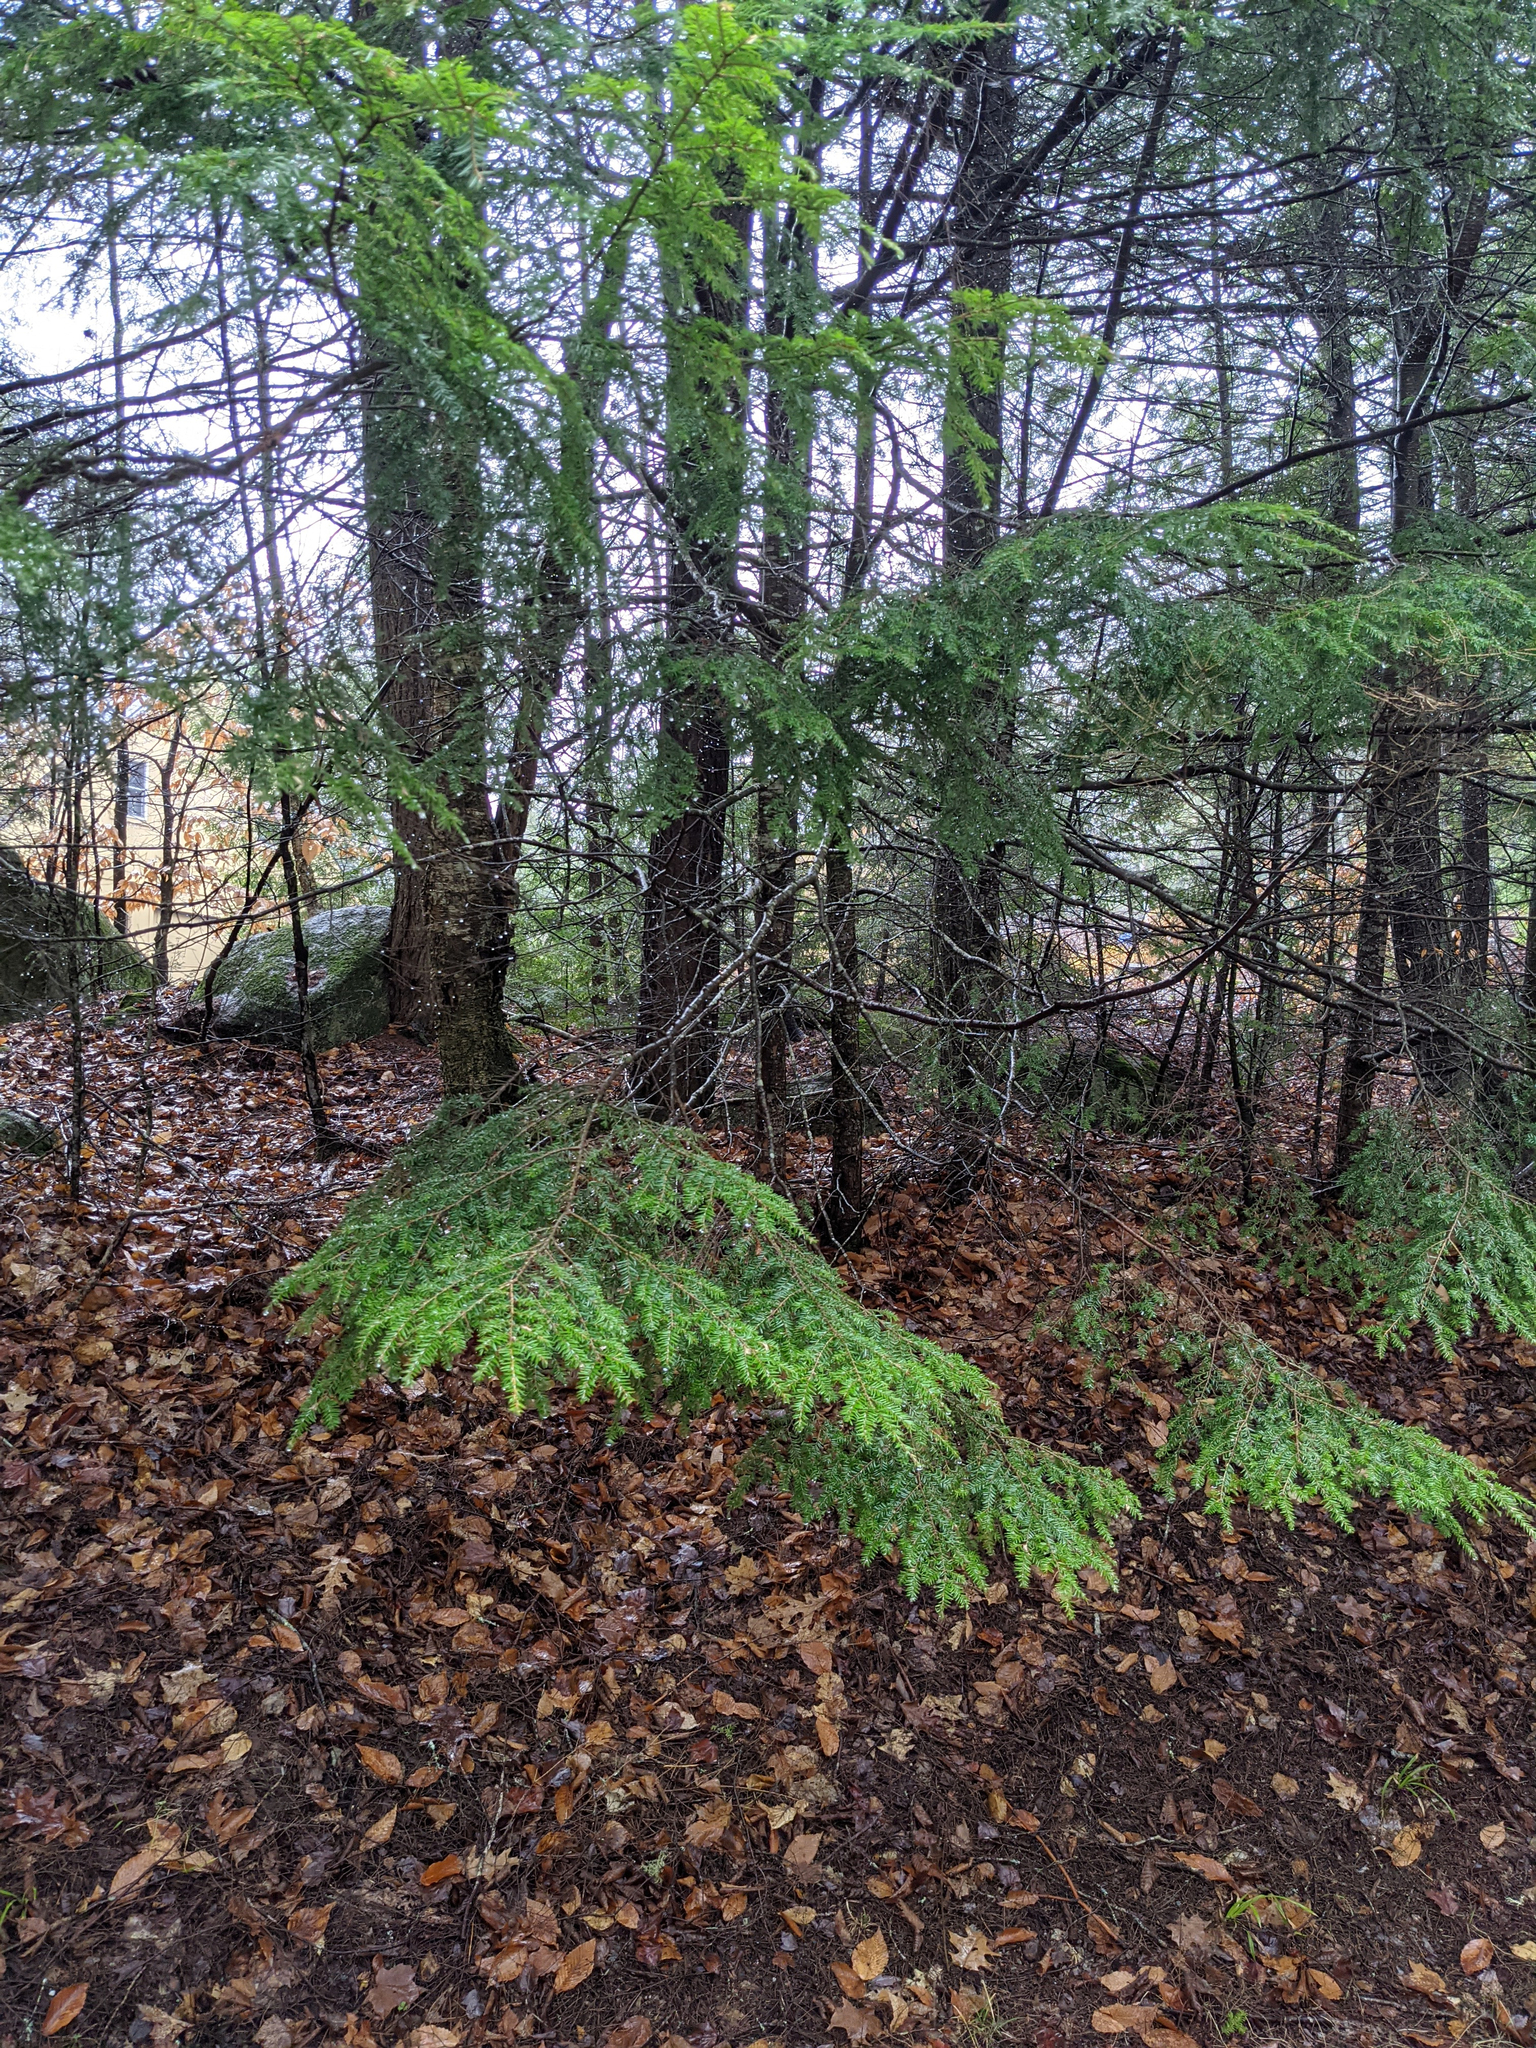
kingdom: Plantae
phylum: Tracheophyta
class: Pinopsida
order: Pinales
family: Pinaceae
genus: Tsuga
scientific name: Tsuga canadensis
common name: Eastern hemlock
